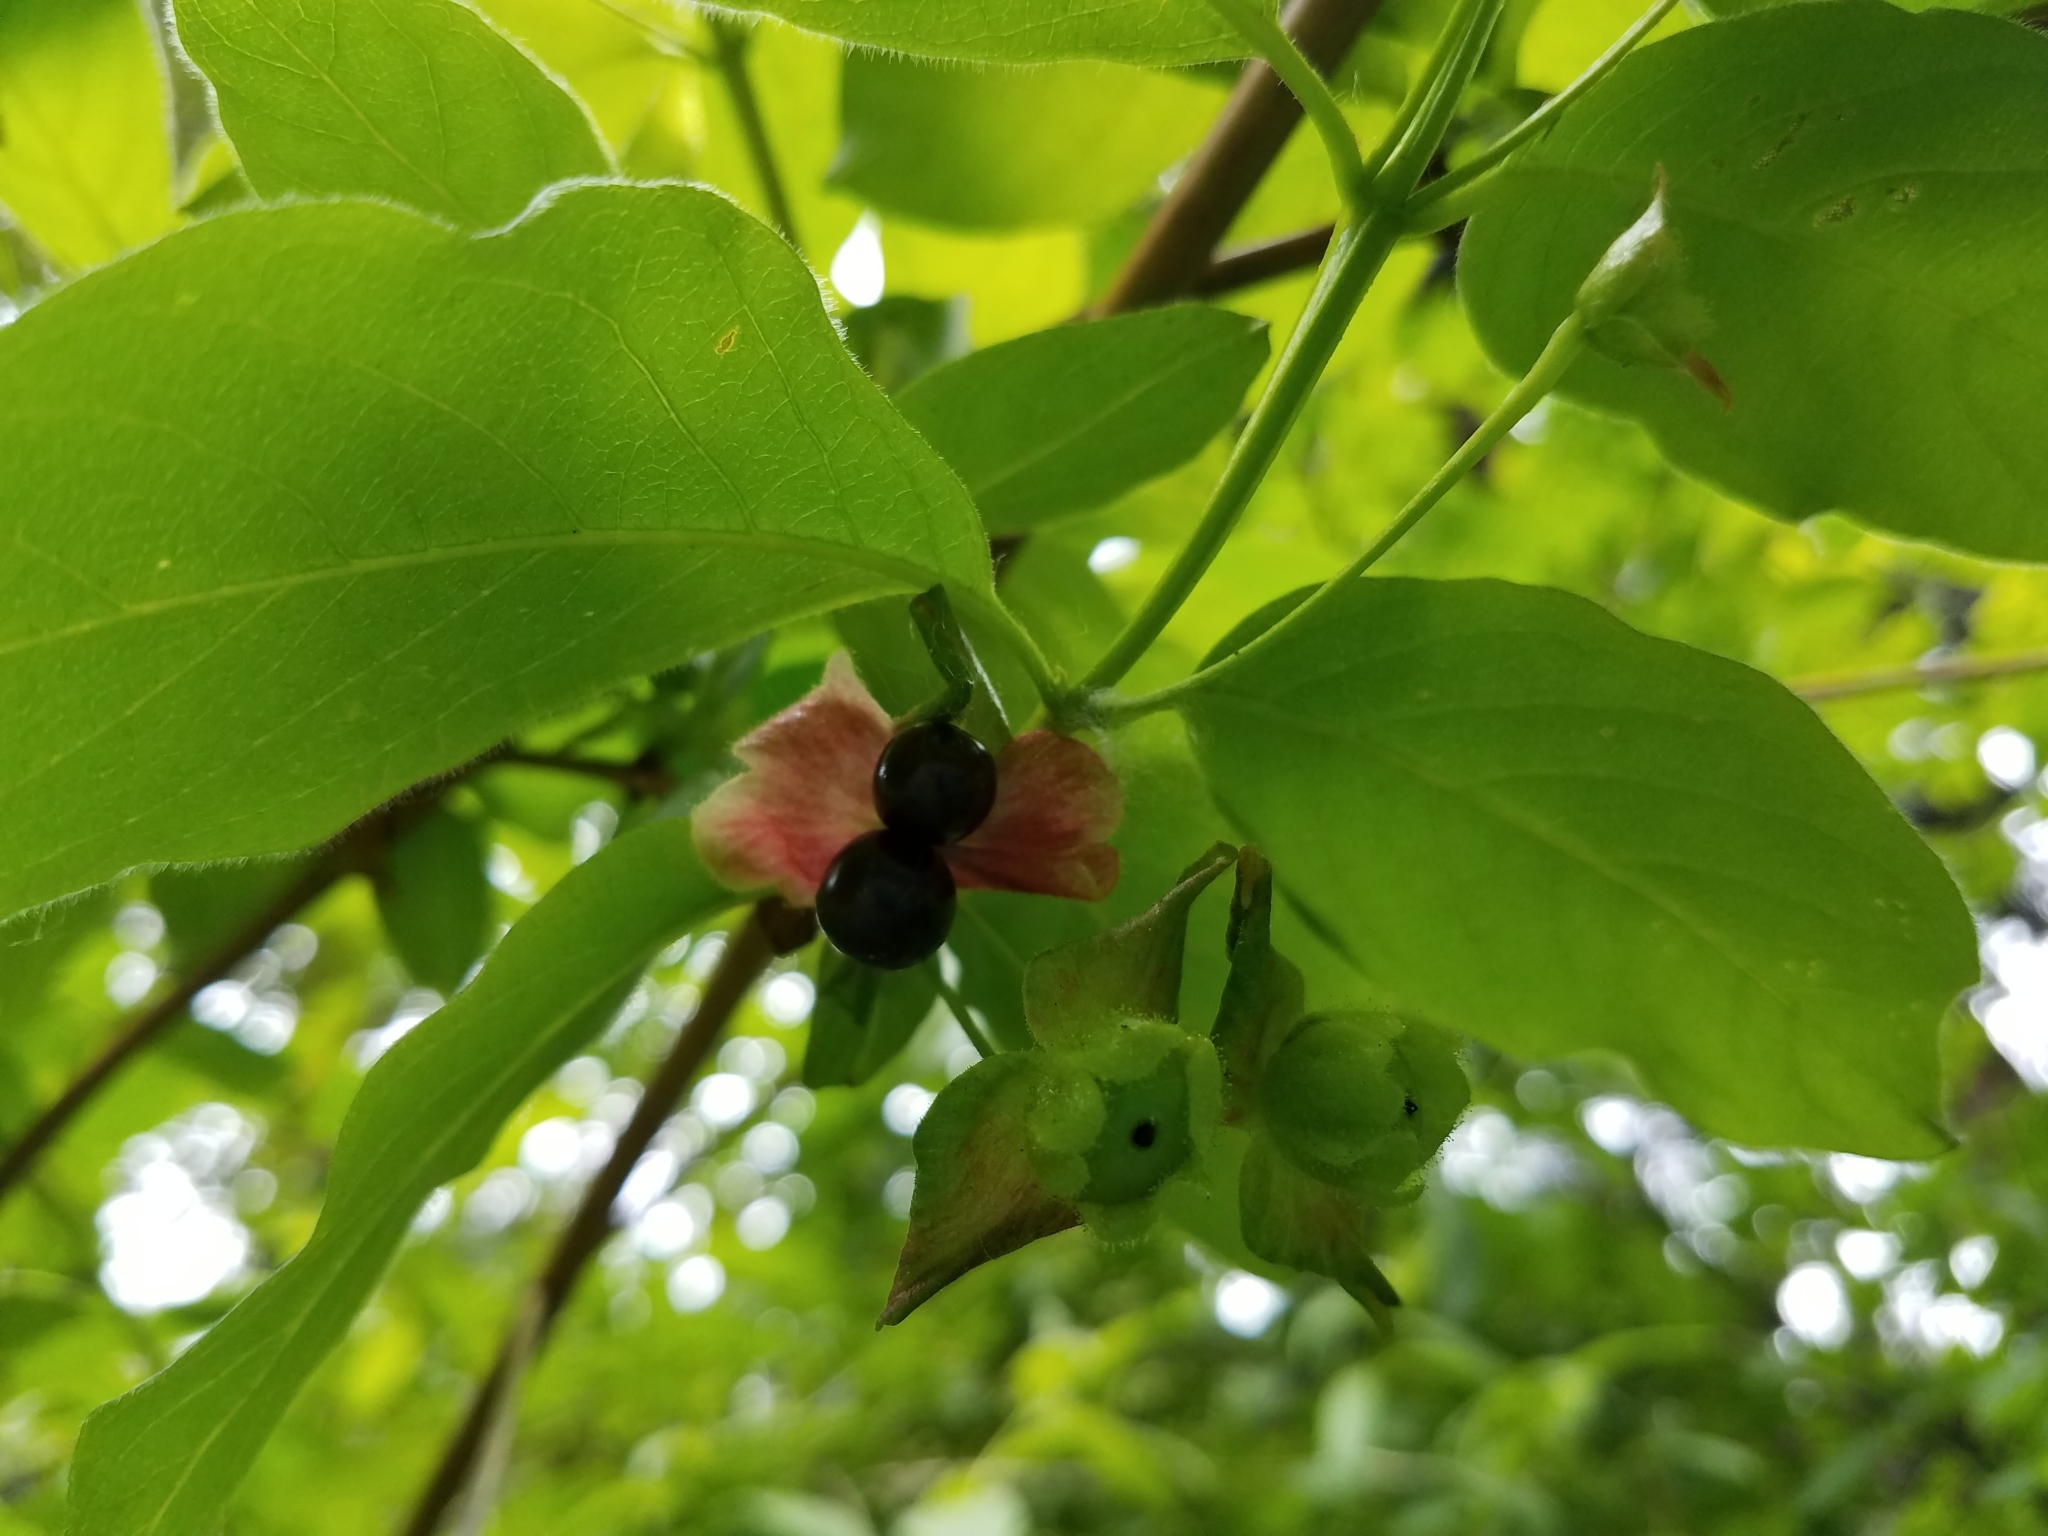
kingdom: Plantae
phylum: Tracheophyta
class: Magnoliopsida
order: Dipsacales
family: Caprifoliaceae
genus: Lonicera
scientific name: Lonicera involucrata
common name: Californian honeysuckle
